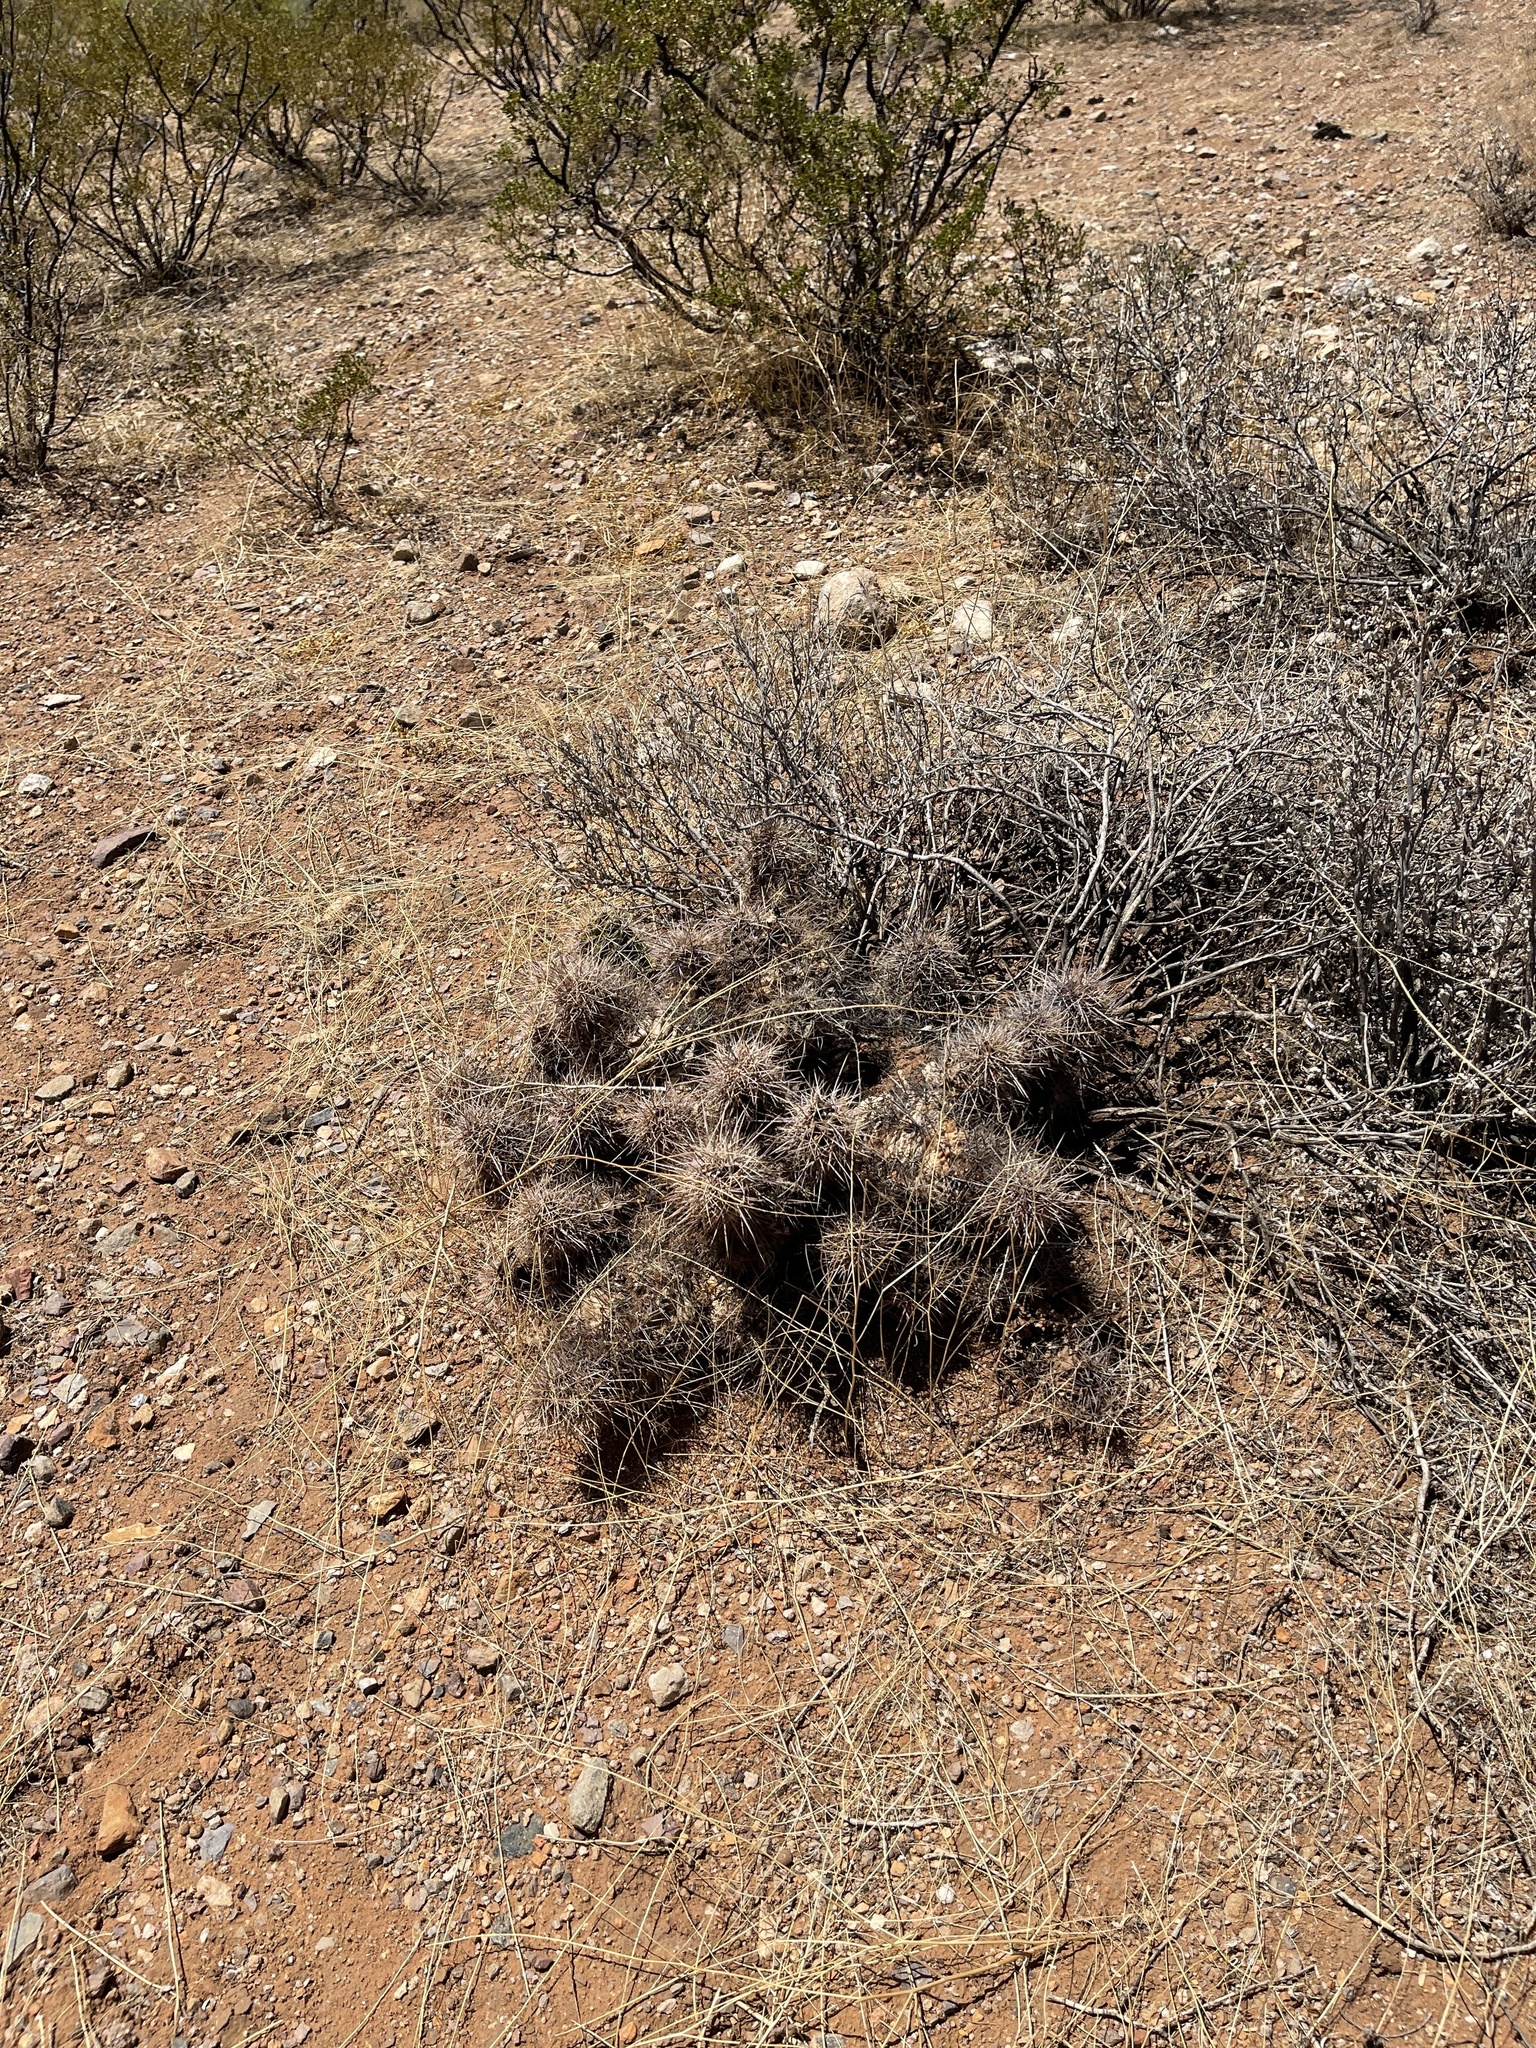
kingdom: Plantae
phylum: Tracheophyta
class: Magnoliopsida
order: Caryophyllales
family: Cactaceae
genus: Echinocereus
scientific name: Echinocereus coccineus
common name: Scarlet hedgehog cactus
